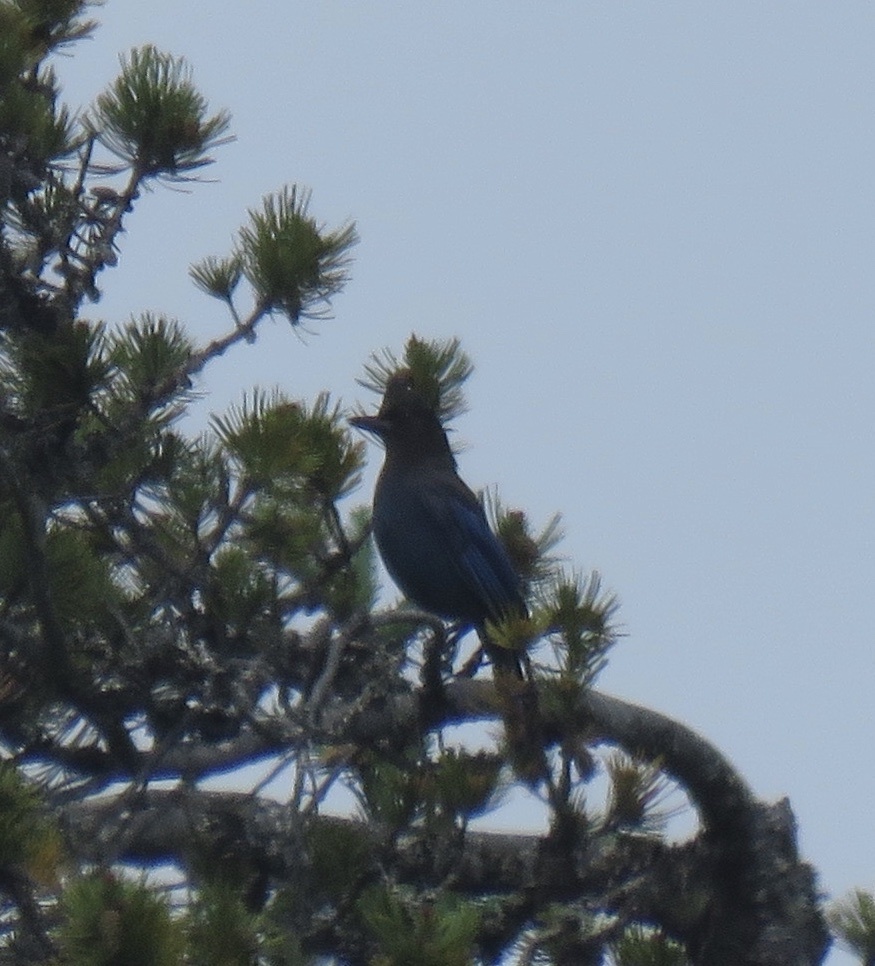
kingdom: Animalia
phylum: Chordata
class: Aves
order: Passeriformes
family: Corvidae
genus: Cyanocitta
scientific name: Cyanocitta stelleri
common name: Steller's jay
